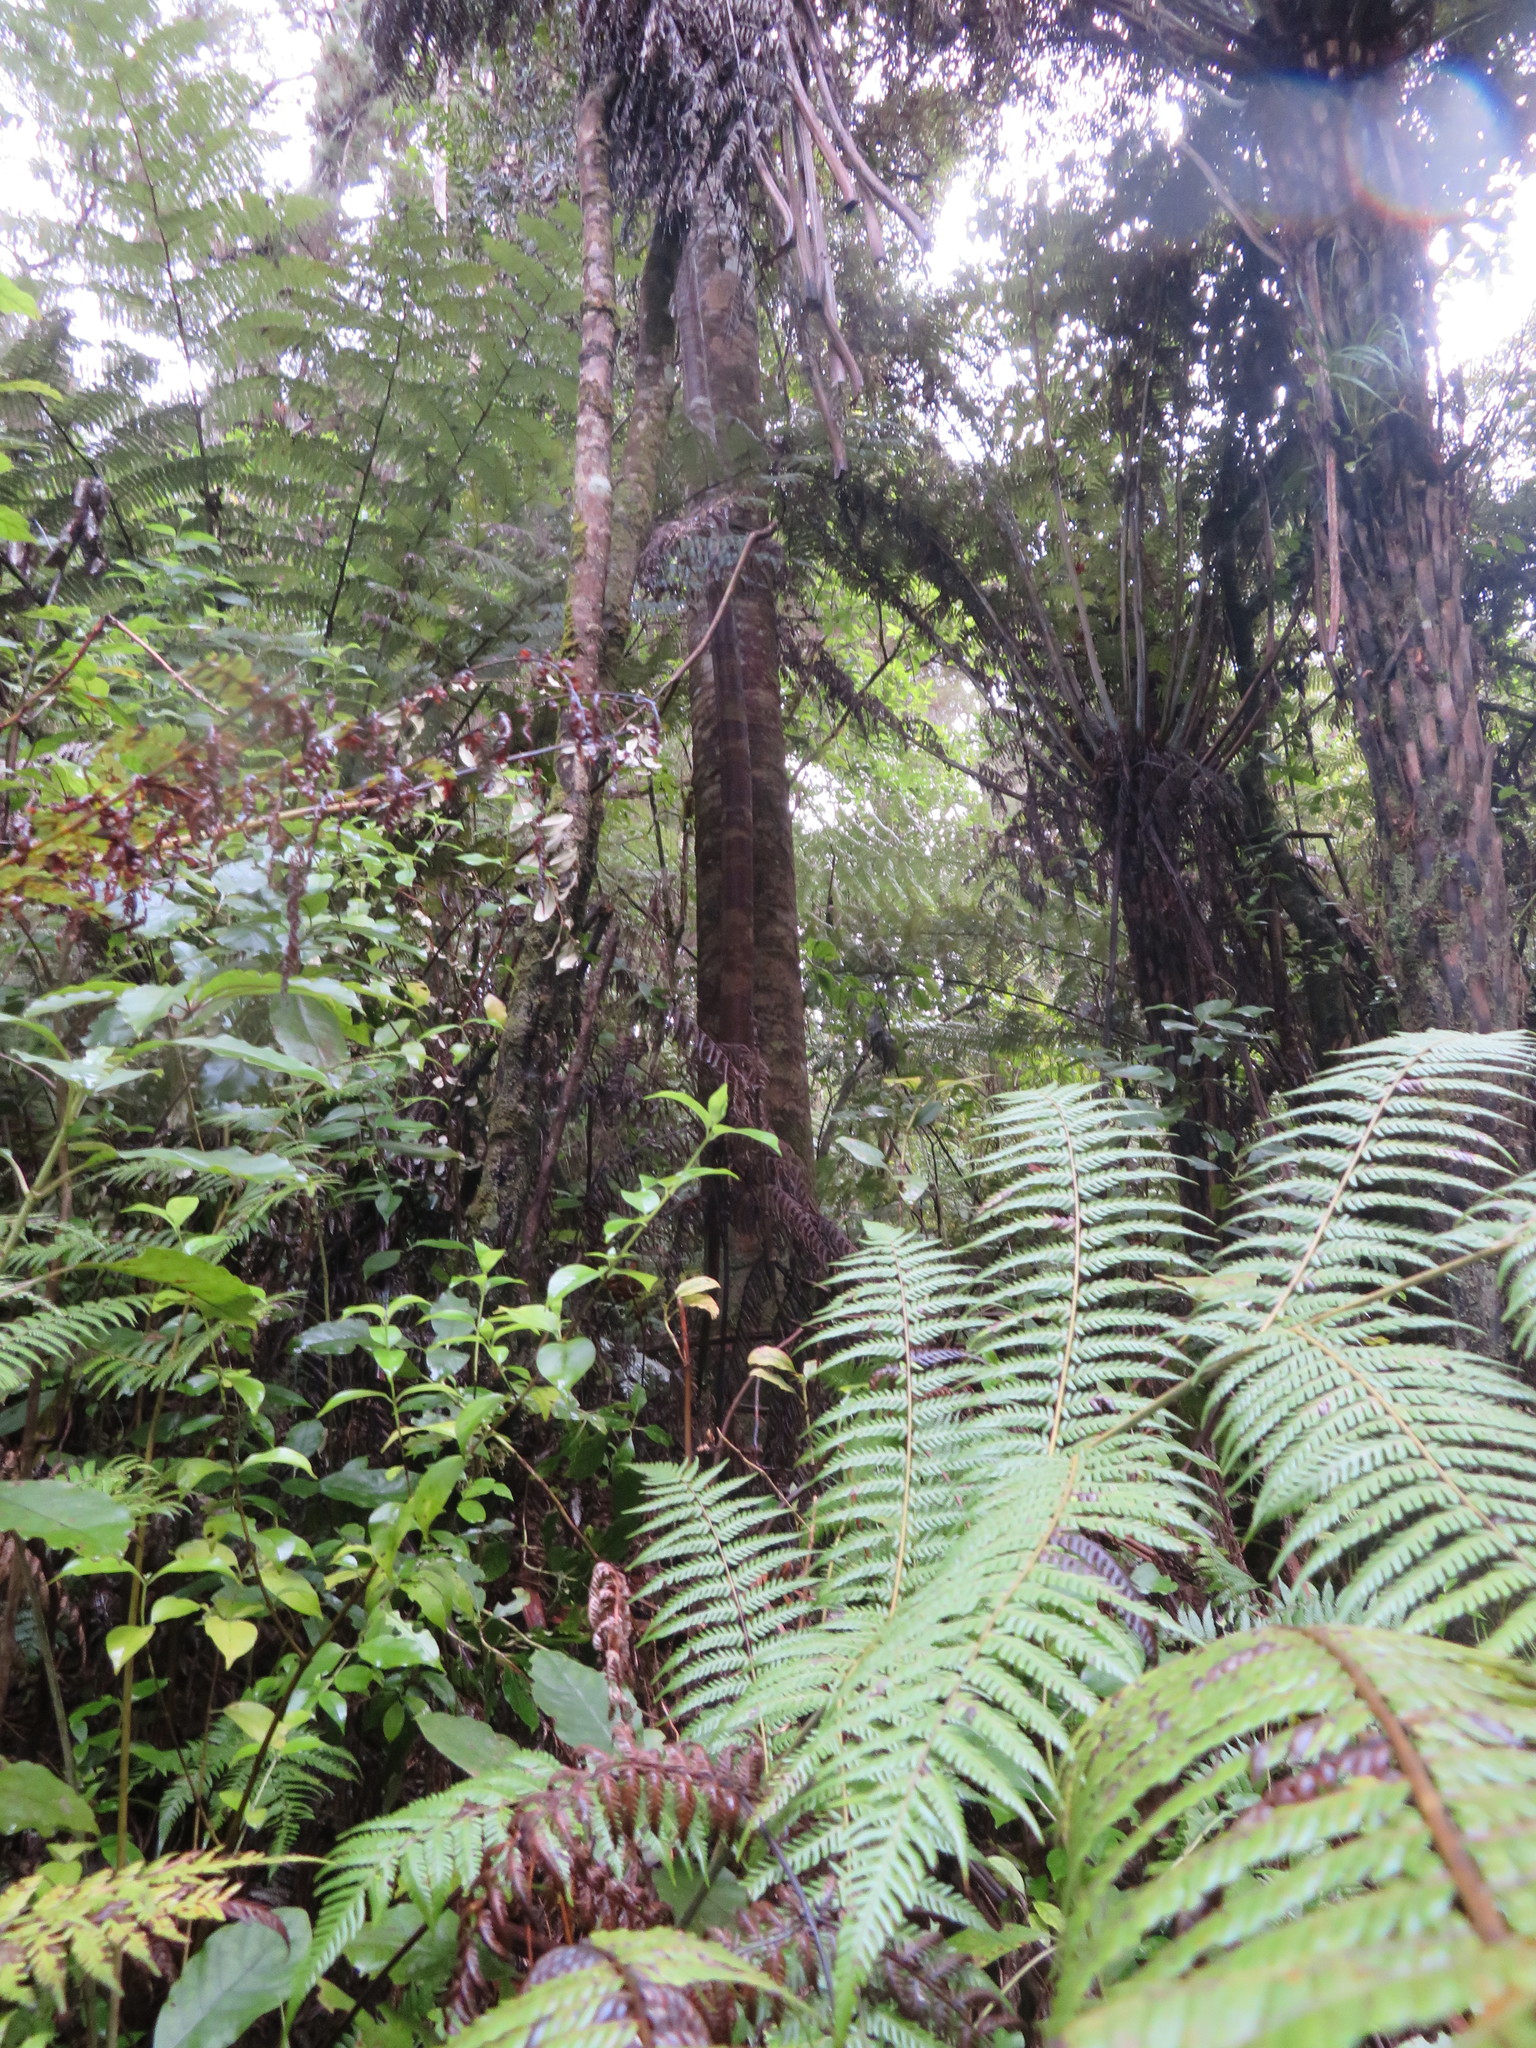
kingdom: Plantae
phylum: Tracheophyta
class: Polypodiopsida
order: Cyatheales
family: Cyatheaceae
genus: Alsophila
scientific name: Alsophila dealbata
